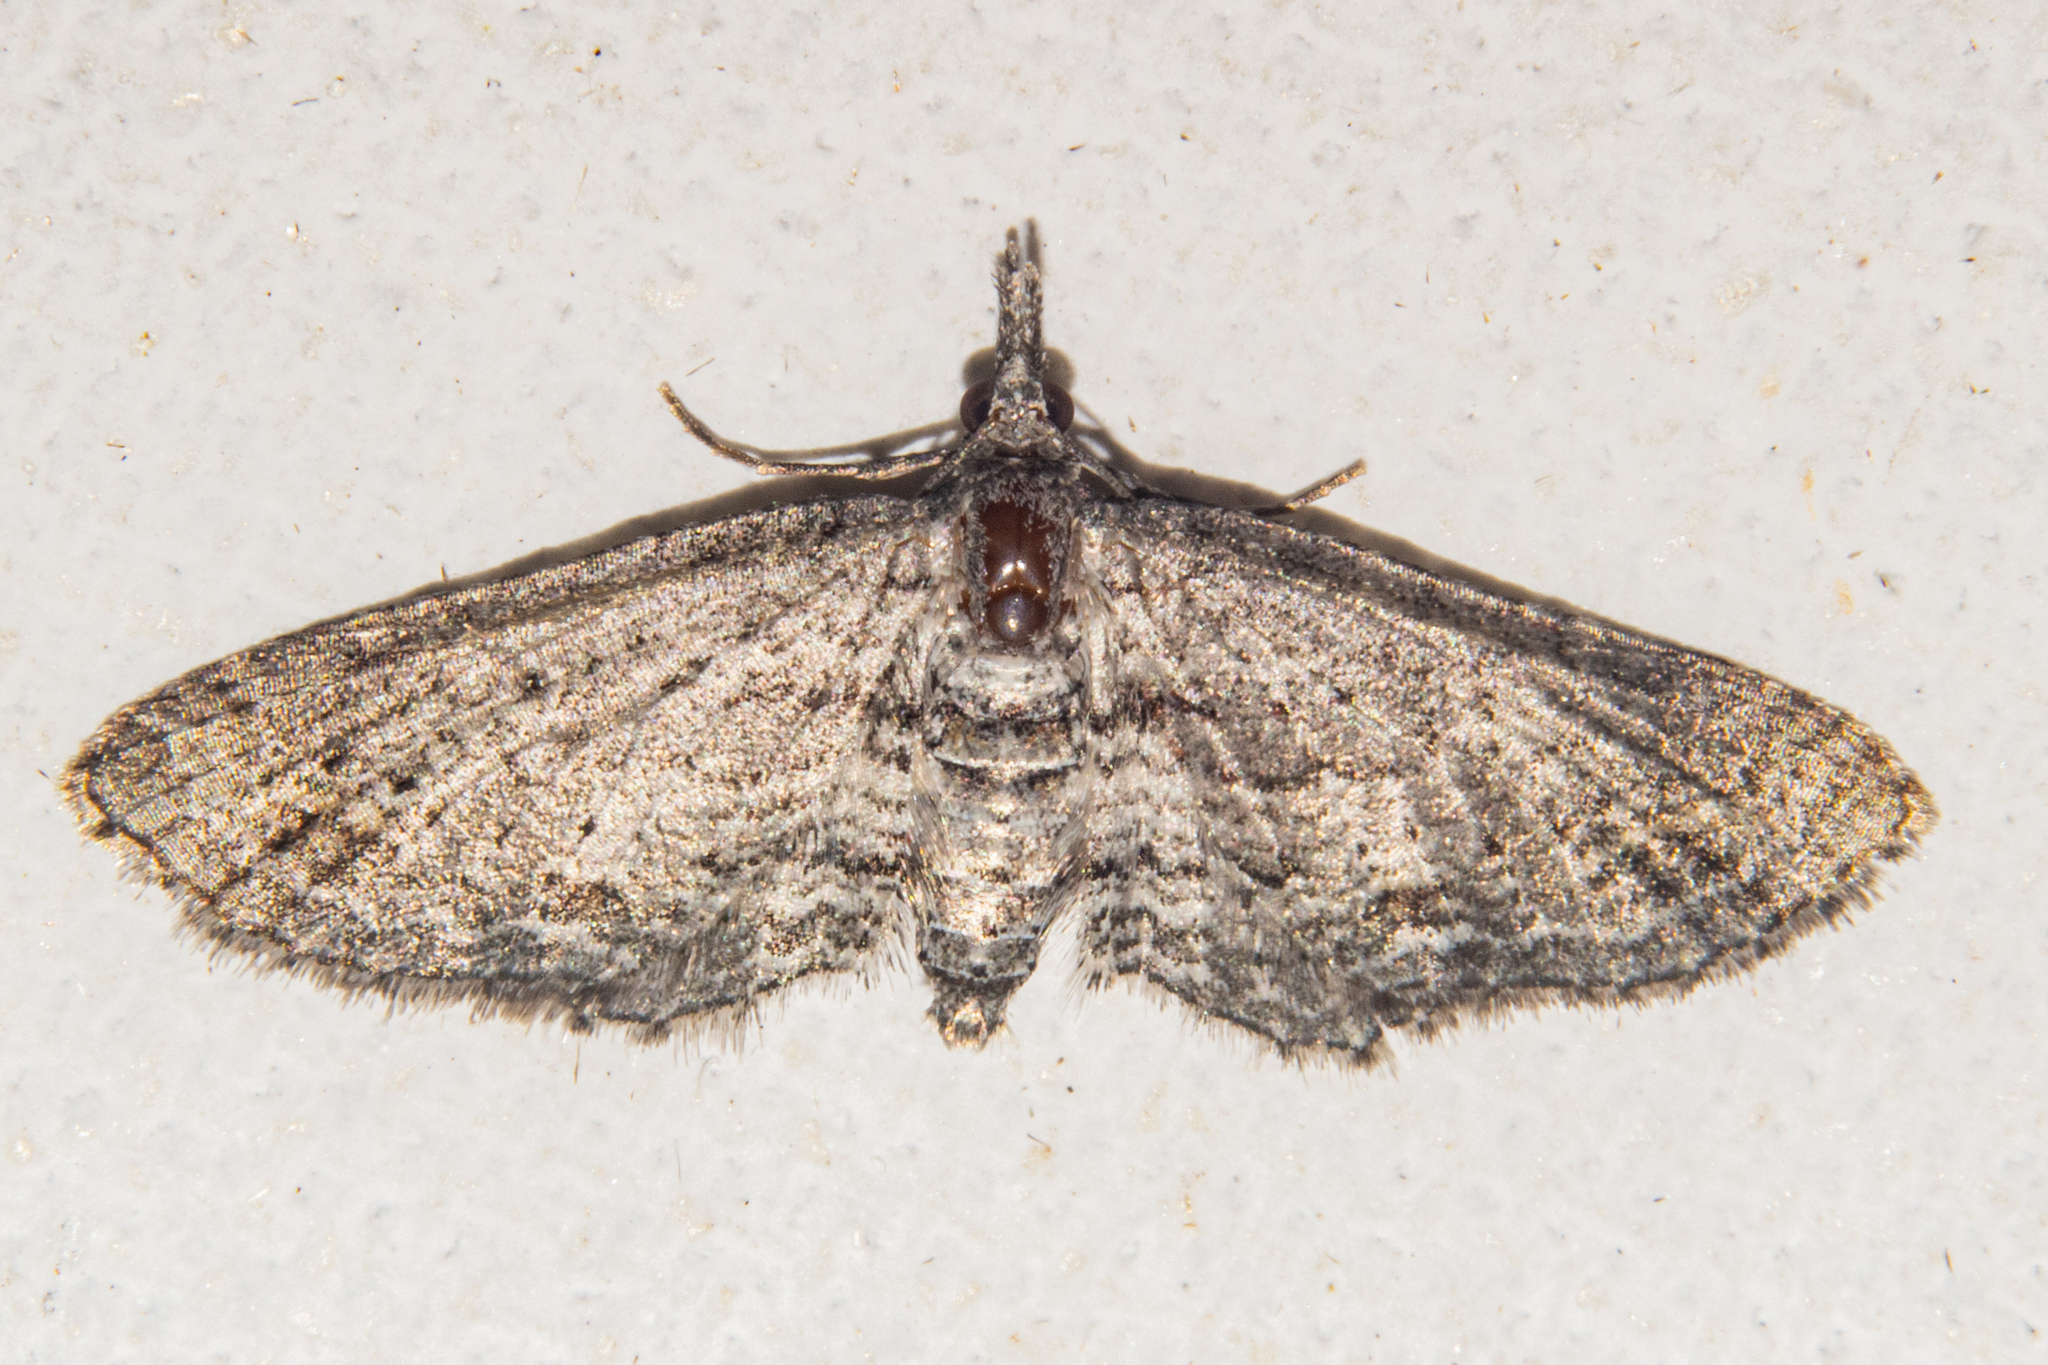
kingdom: Animalia
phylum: Arthropoda
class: Insecta
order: Lepidoptera
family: Geometridae
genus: Pasiphila
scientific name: Pasiphila humilis
